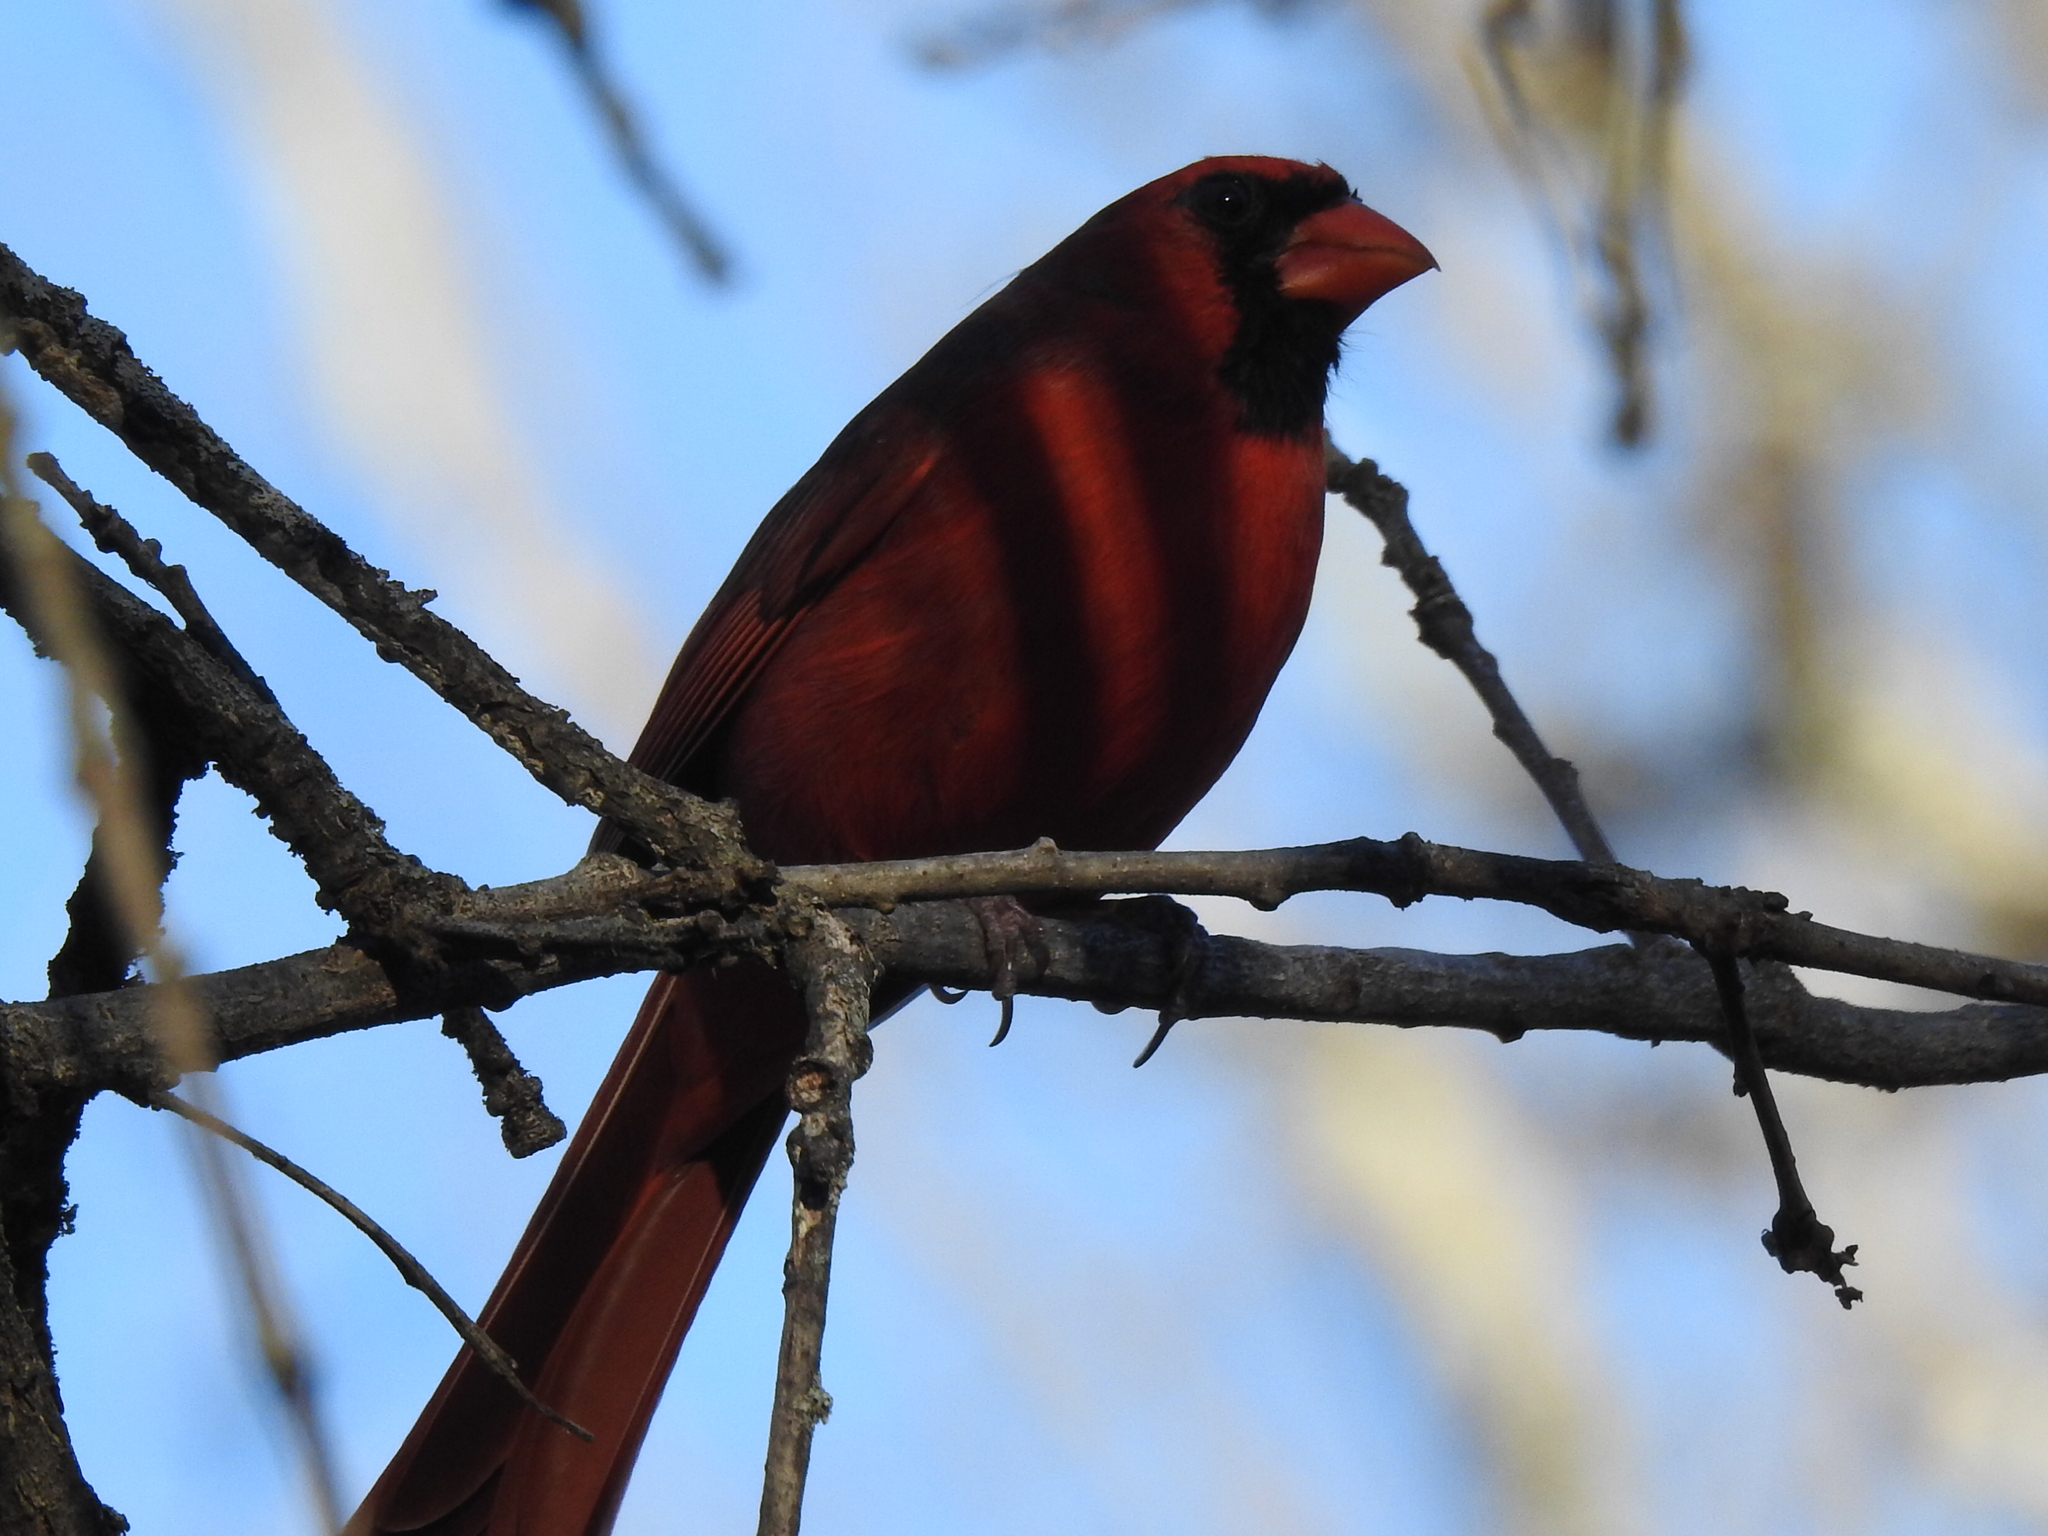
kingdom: Animalia
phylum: Chordata
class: Aves
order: Passeriformes
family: Cardinalidae
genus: Cardinalis
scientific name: Cardinalis cardinalis
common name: Northern cardinal
